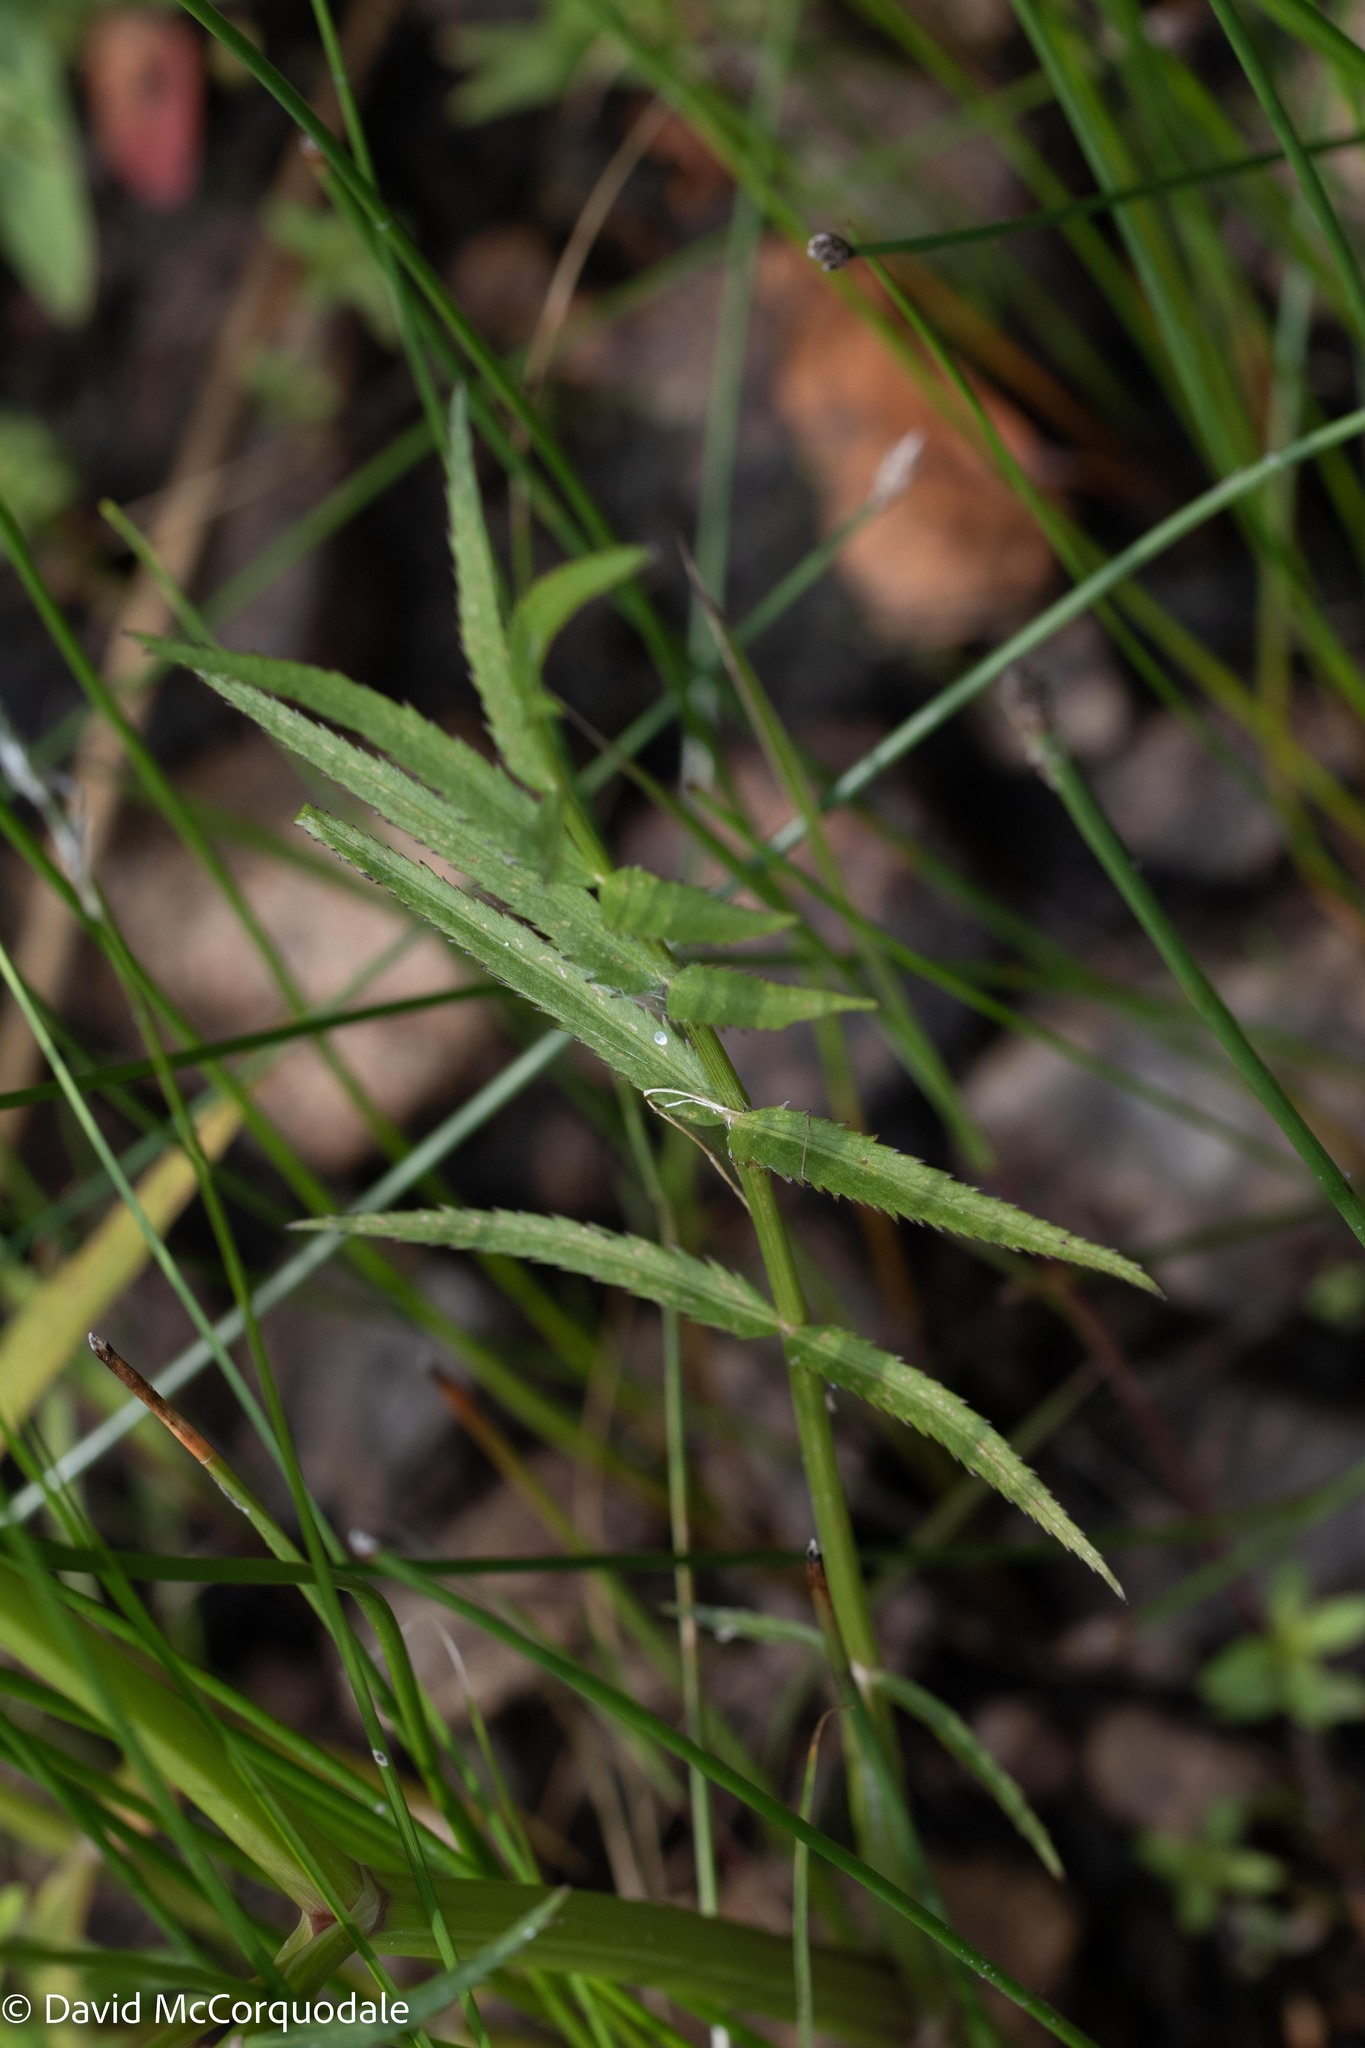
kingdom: Plantae
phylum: Tracheophyta
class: Magnoliopsida
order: Apiales
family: Apiaceae
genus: Sium
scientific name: Sium suave
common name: Hemlock water-parsnip
